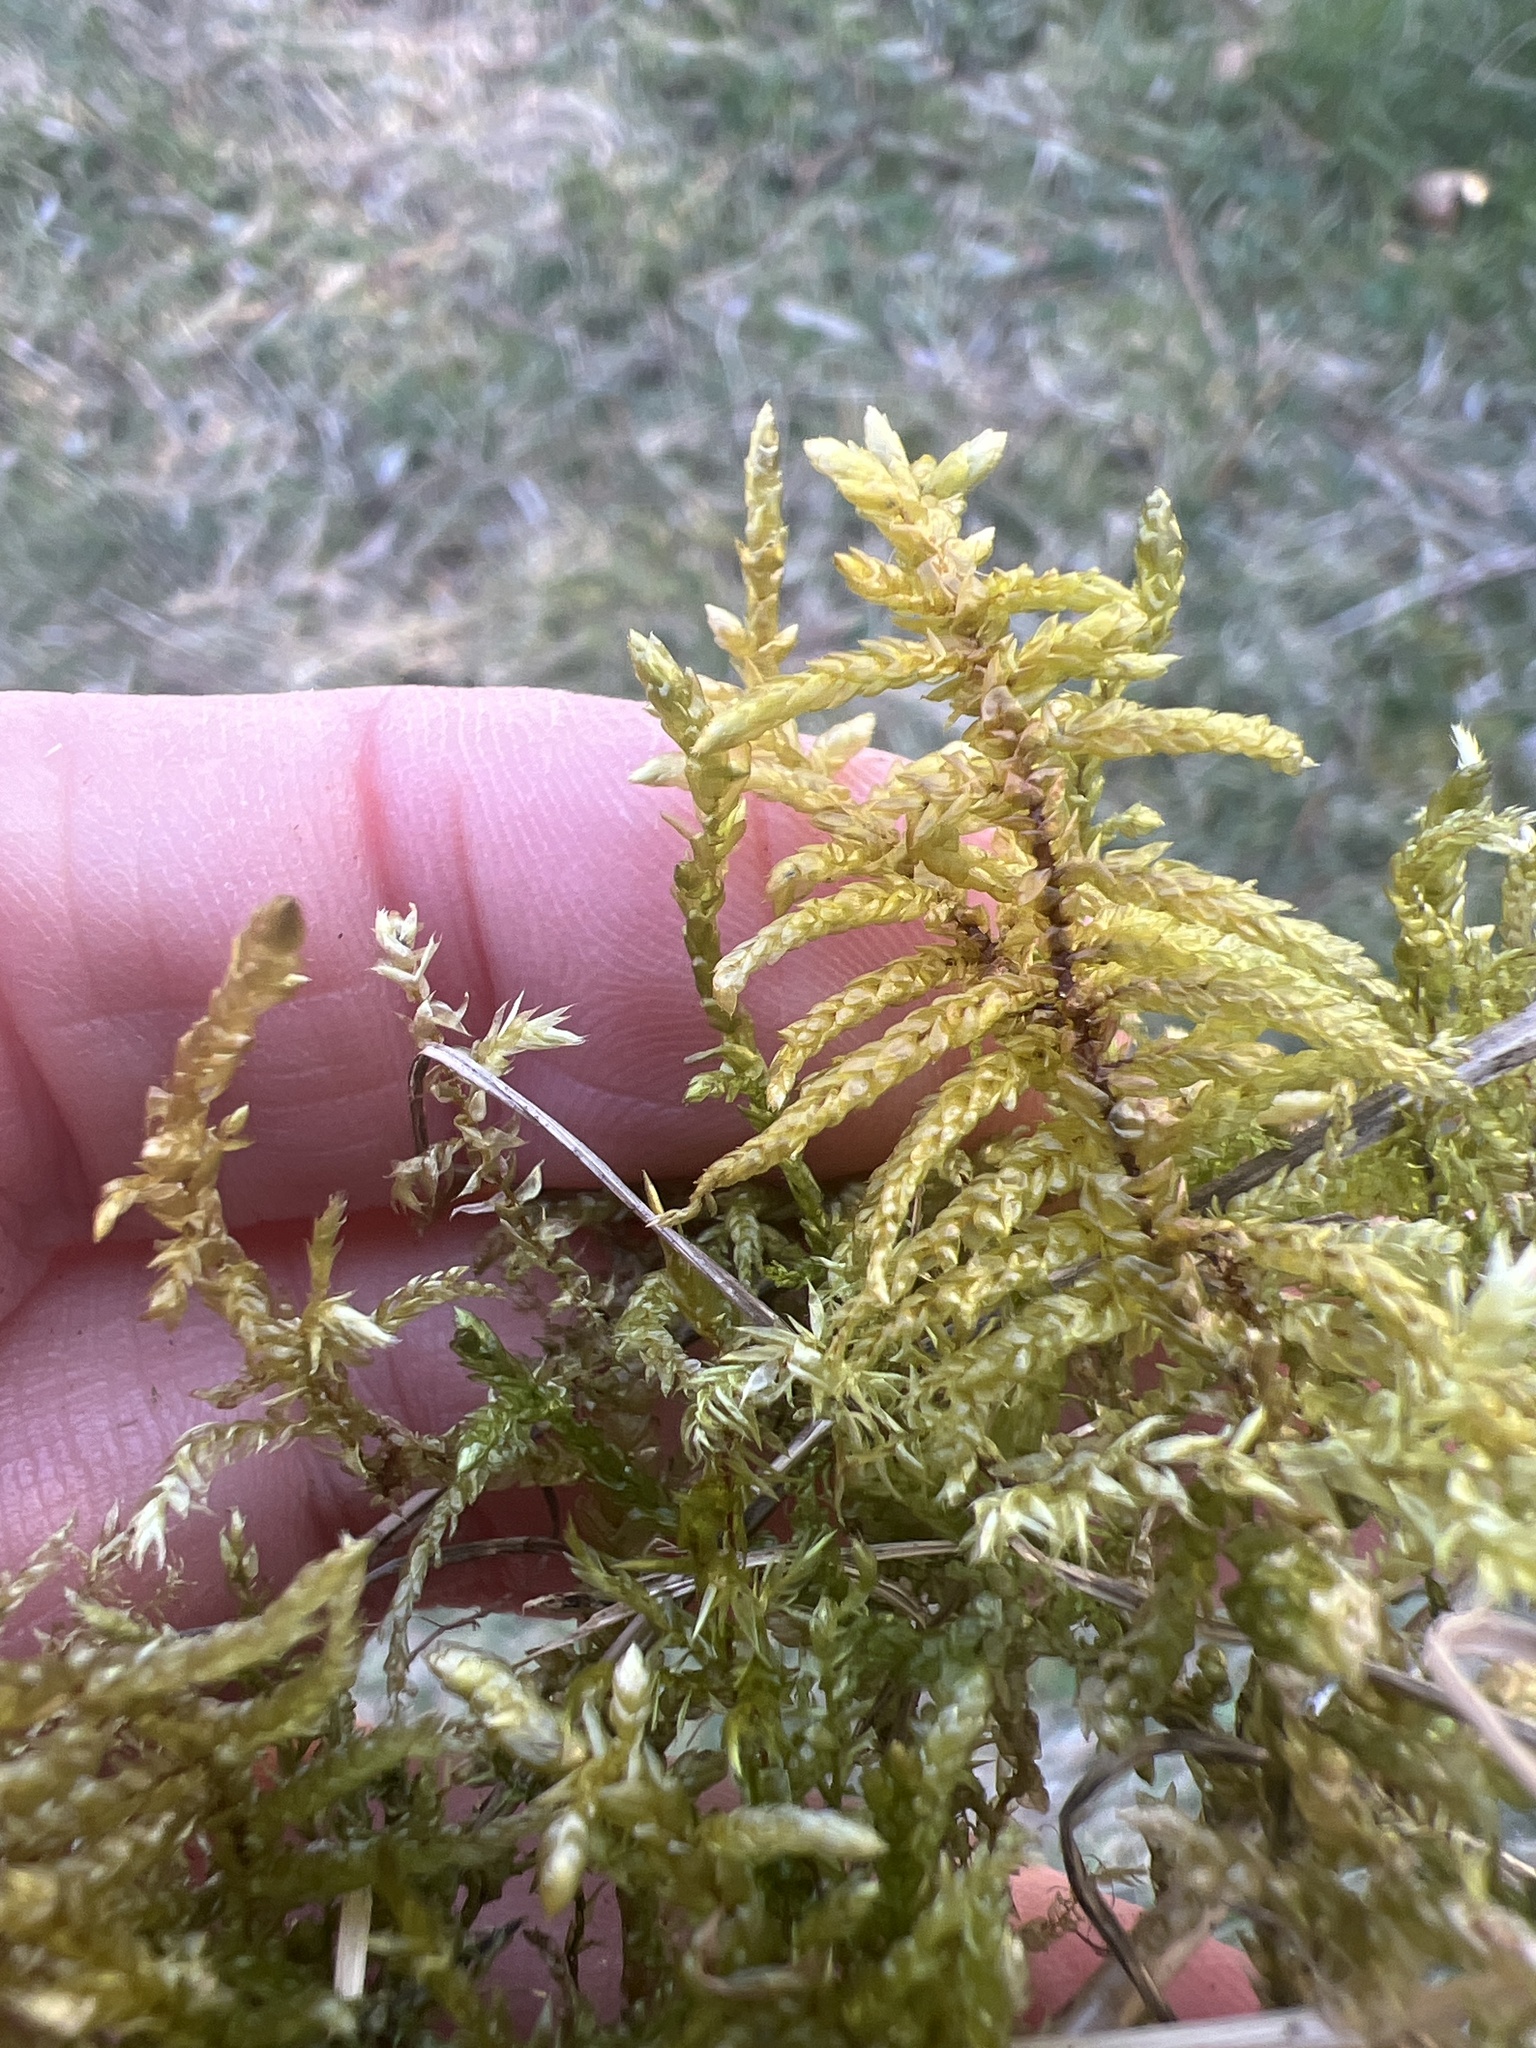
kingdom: Plantae
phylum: Bryophyta
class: Bryopsida
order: Hypnales
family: Hylocomiaceae
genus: Pleurozium
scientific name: Pleurozium schreberi
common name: Red-stemmed feather moss
